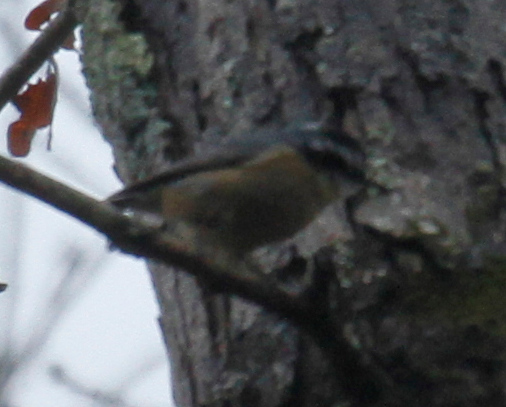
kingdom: Animalia
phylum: Chordata
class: Aves
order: Passeriformes
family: Sittidae
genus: Sitta
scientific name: Sitta canadensis
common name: Red-breasted nuthatch
